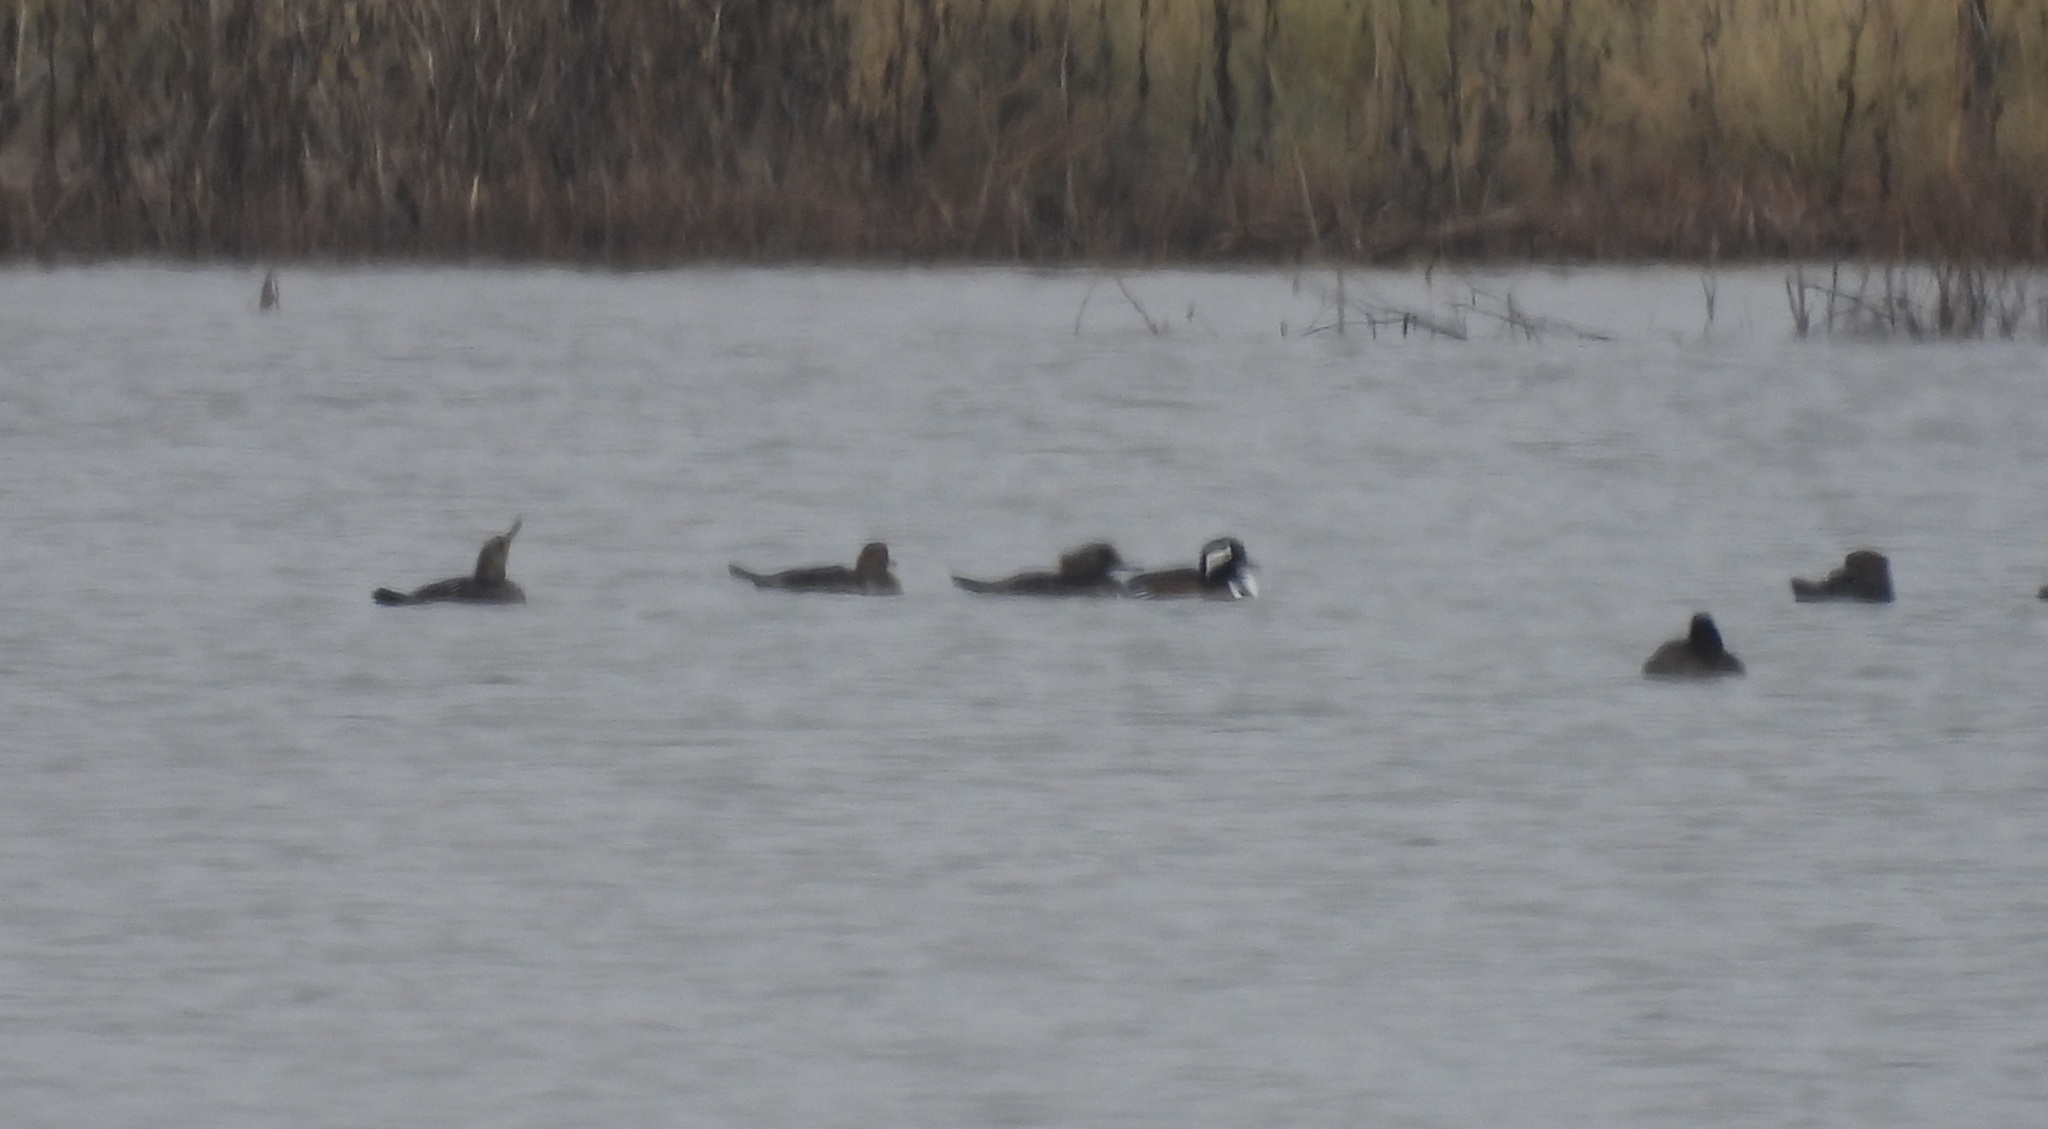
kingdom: Animalia
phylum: Chordata
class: Aves
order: Anseriformes
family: Anatidae
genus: Lophodytes
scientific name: Lophodytes cucullatus
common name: Hooded merganser
